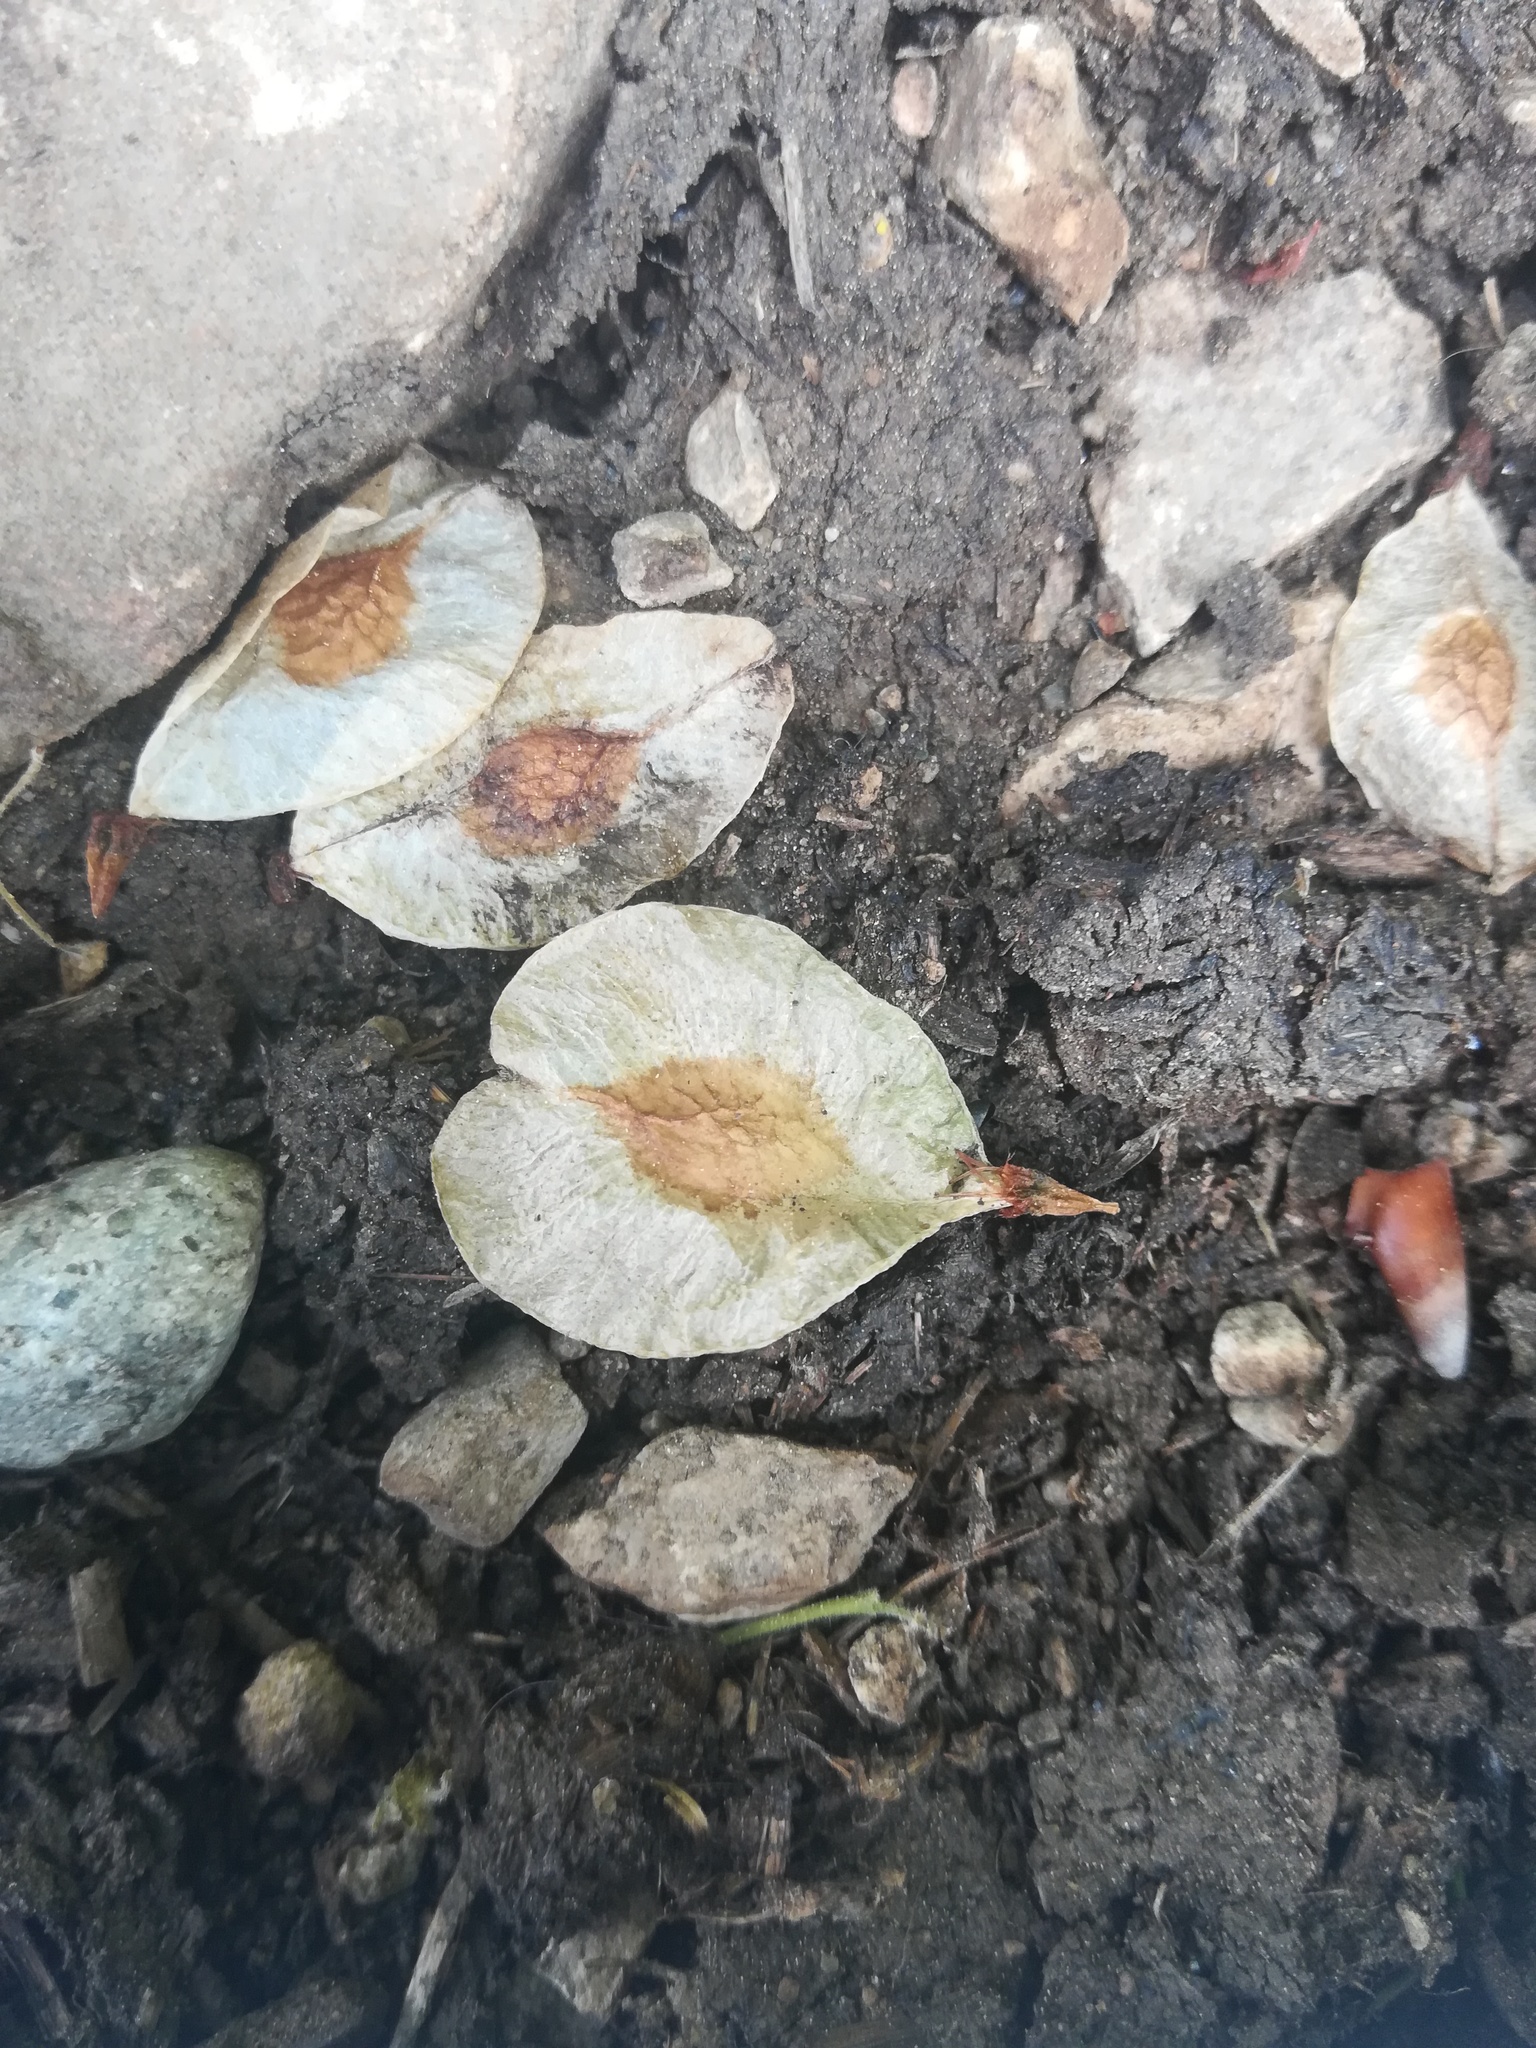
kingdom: Plantae
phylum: Tracheophyta
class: Magnoliopsida
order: Rosales
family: Ulmaceae
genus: Ulmus
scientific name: Ulmus glabra
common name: Wych elm
